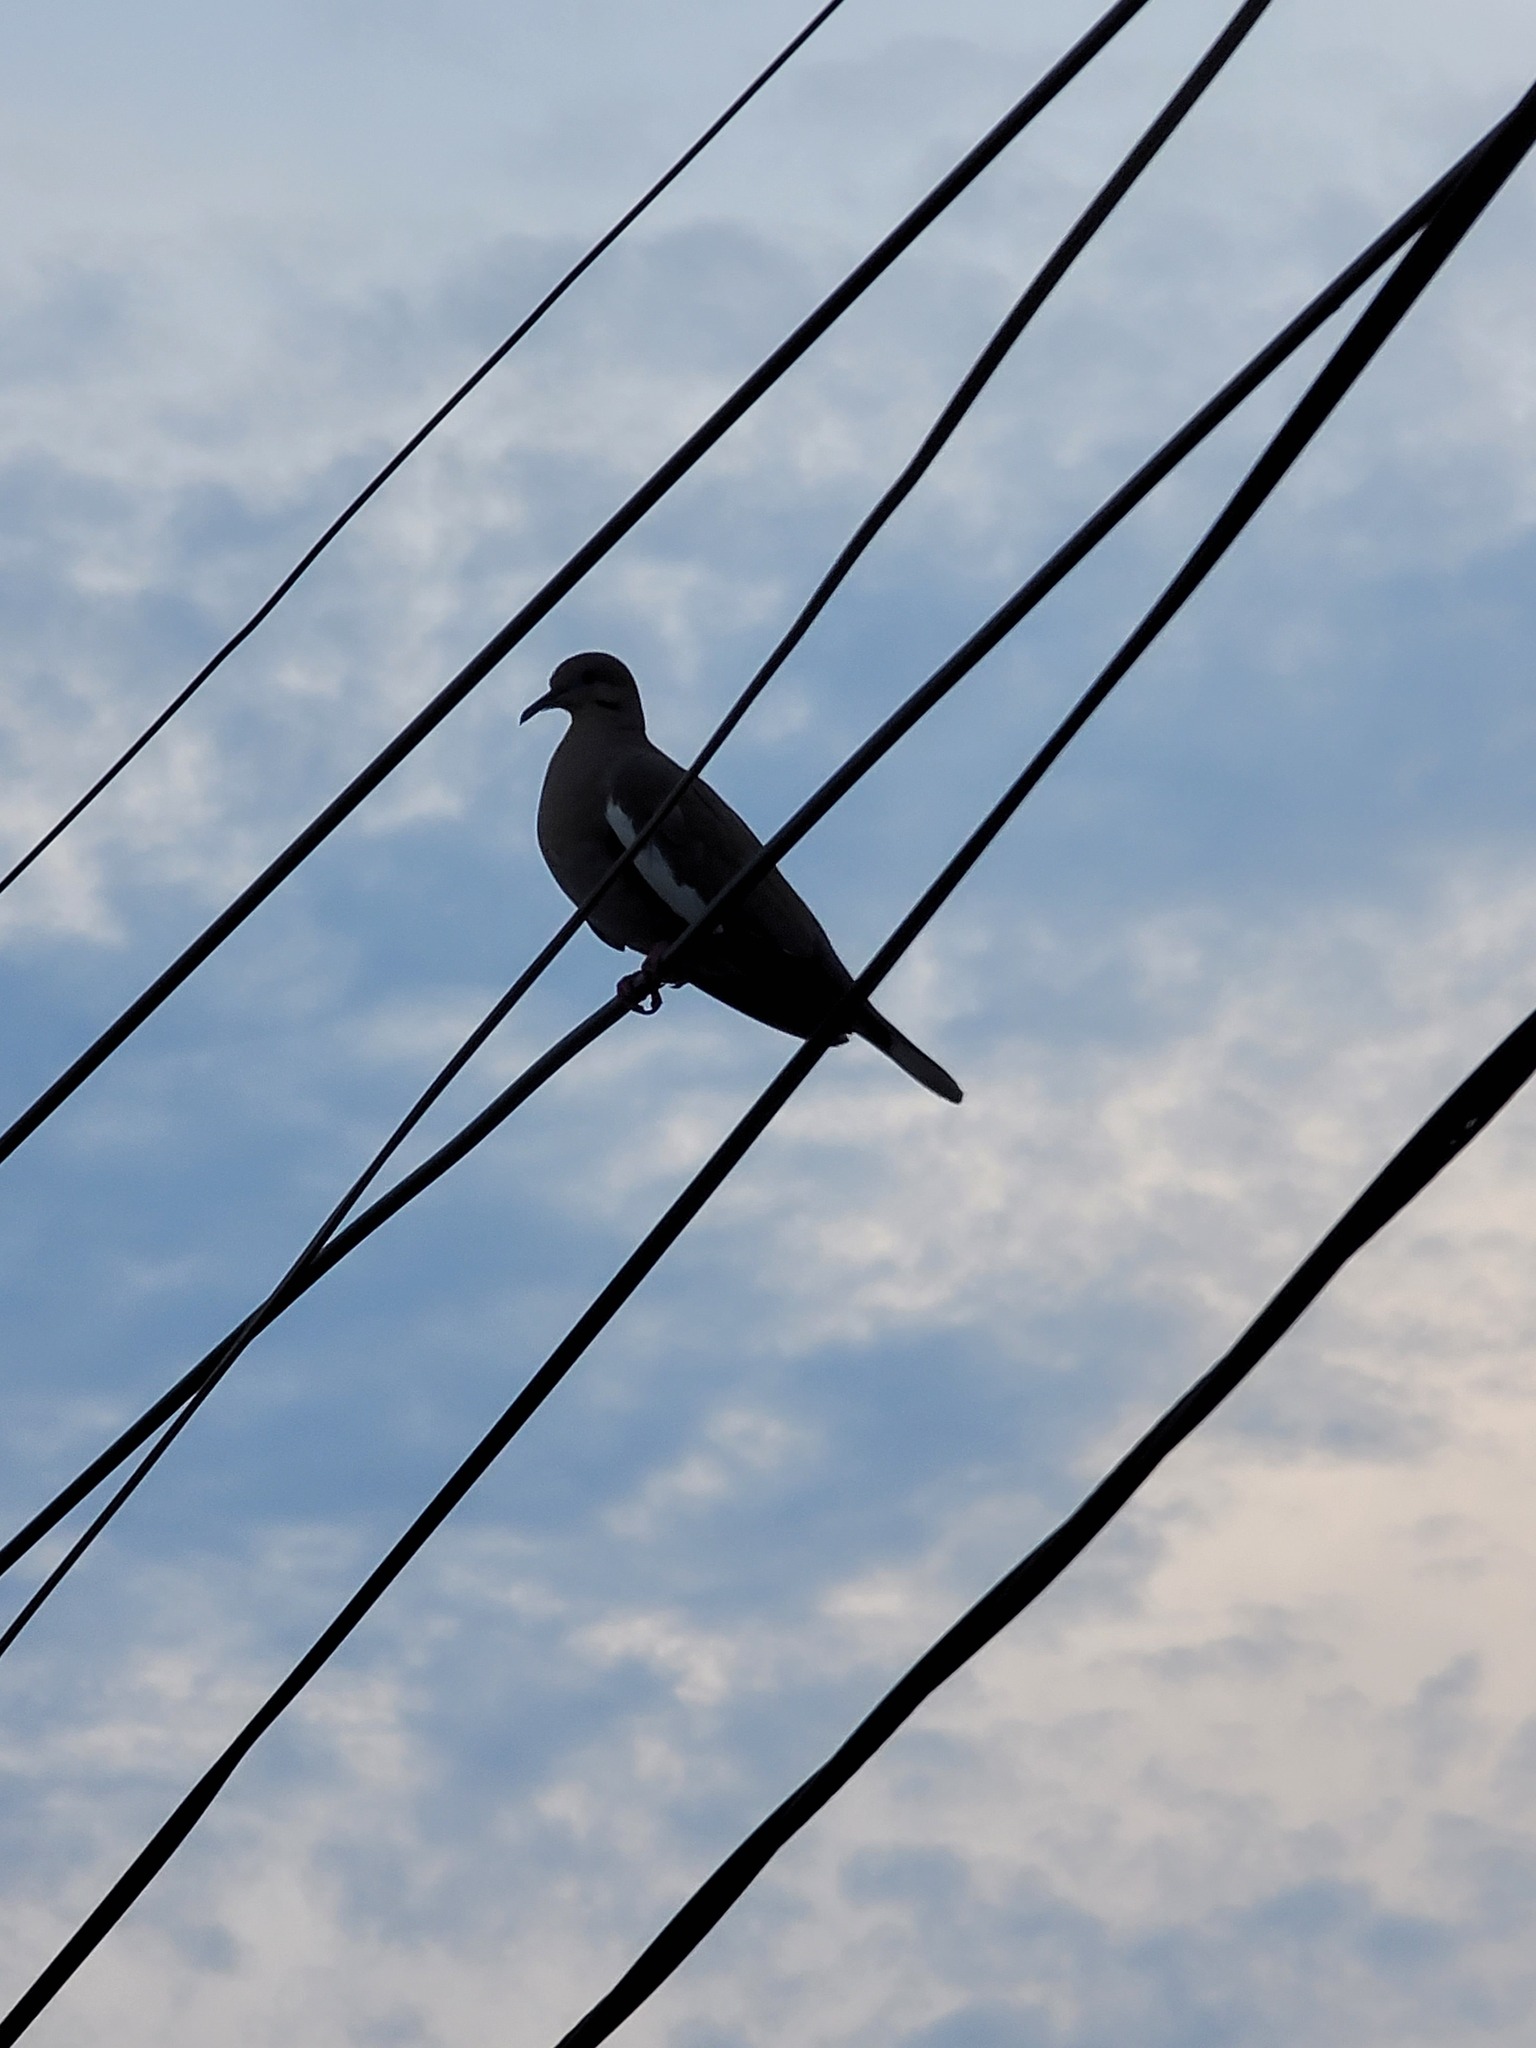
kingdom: Animalia
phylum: Chordata
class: Aves
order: Columbiformes
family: Columbidae
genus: Zenaida
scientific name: Zenaida asiatica
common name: White-winged dove
